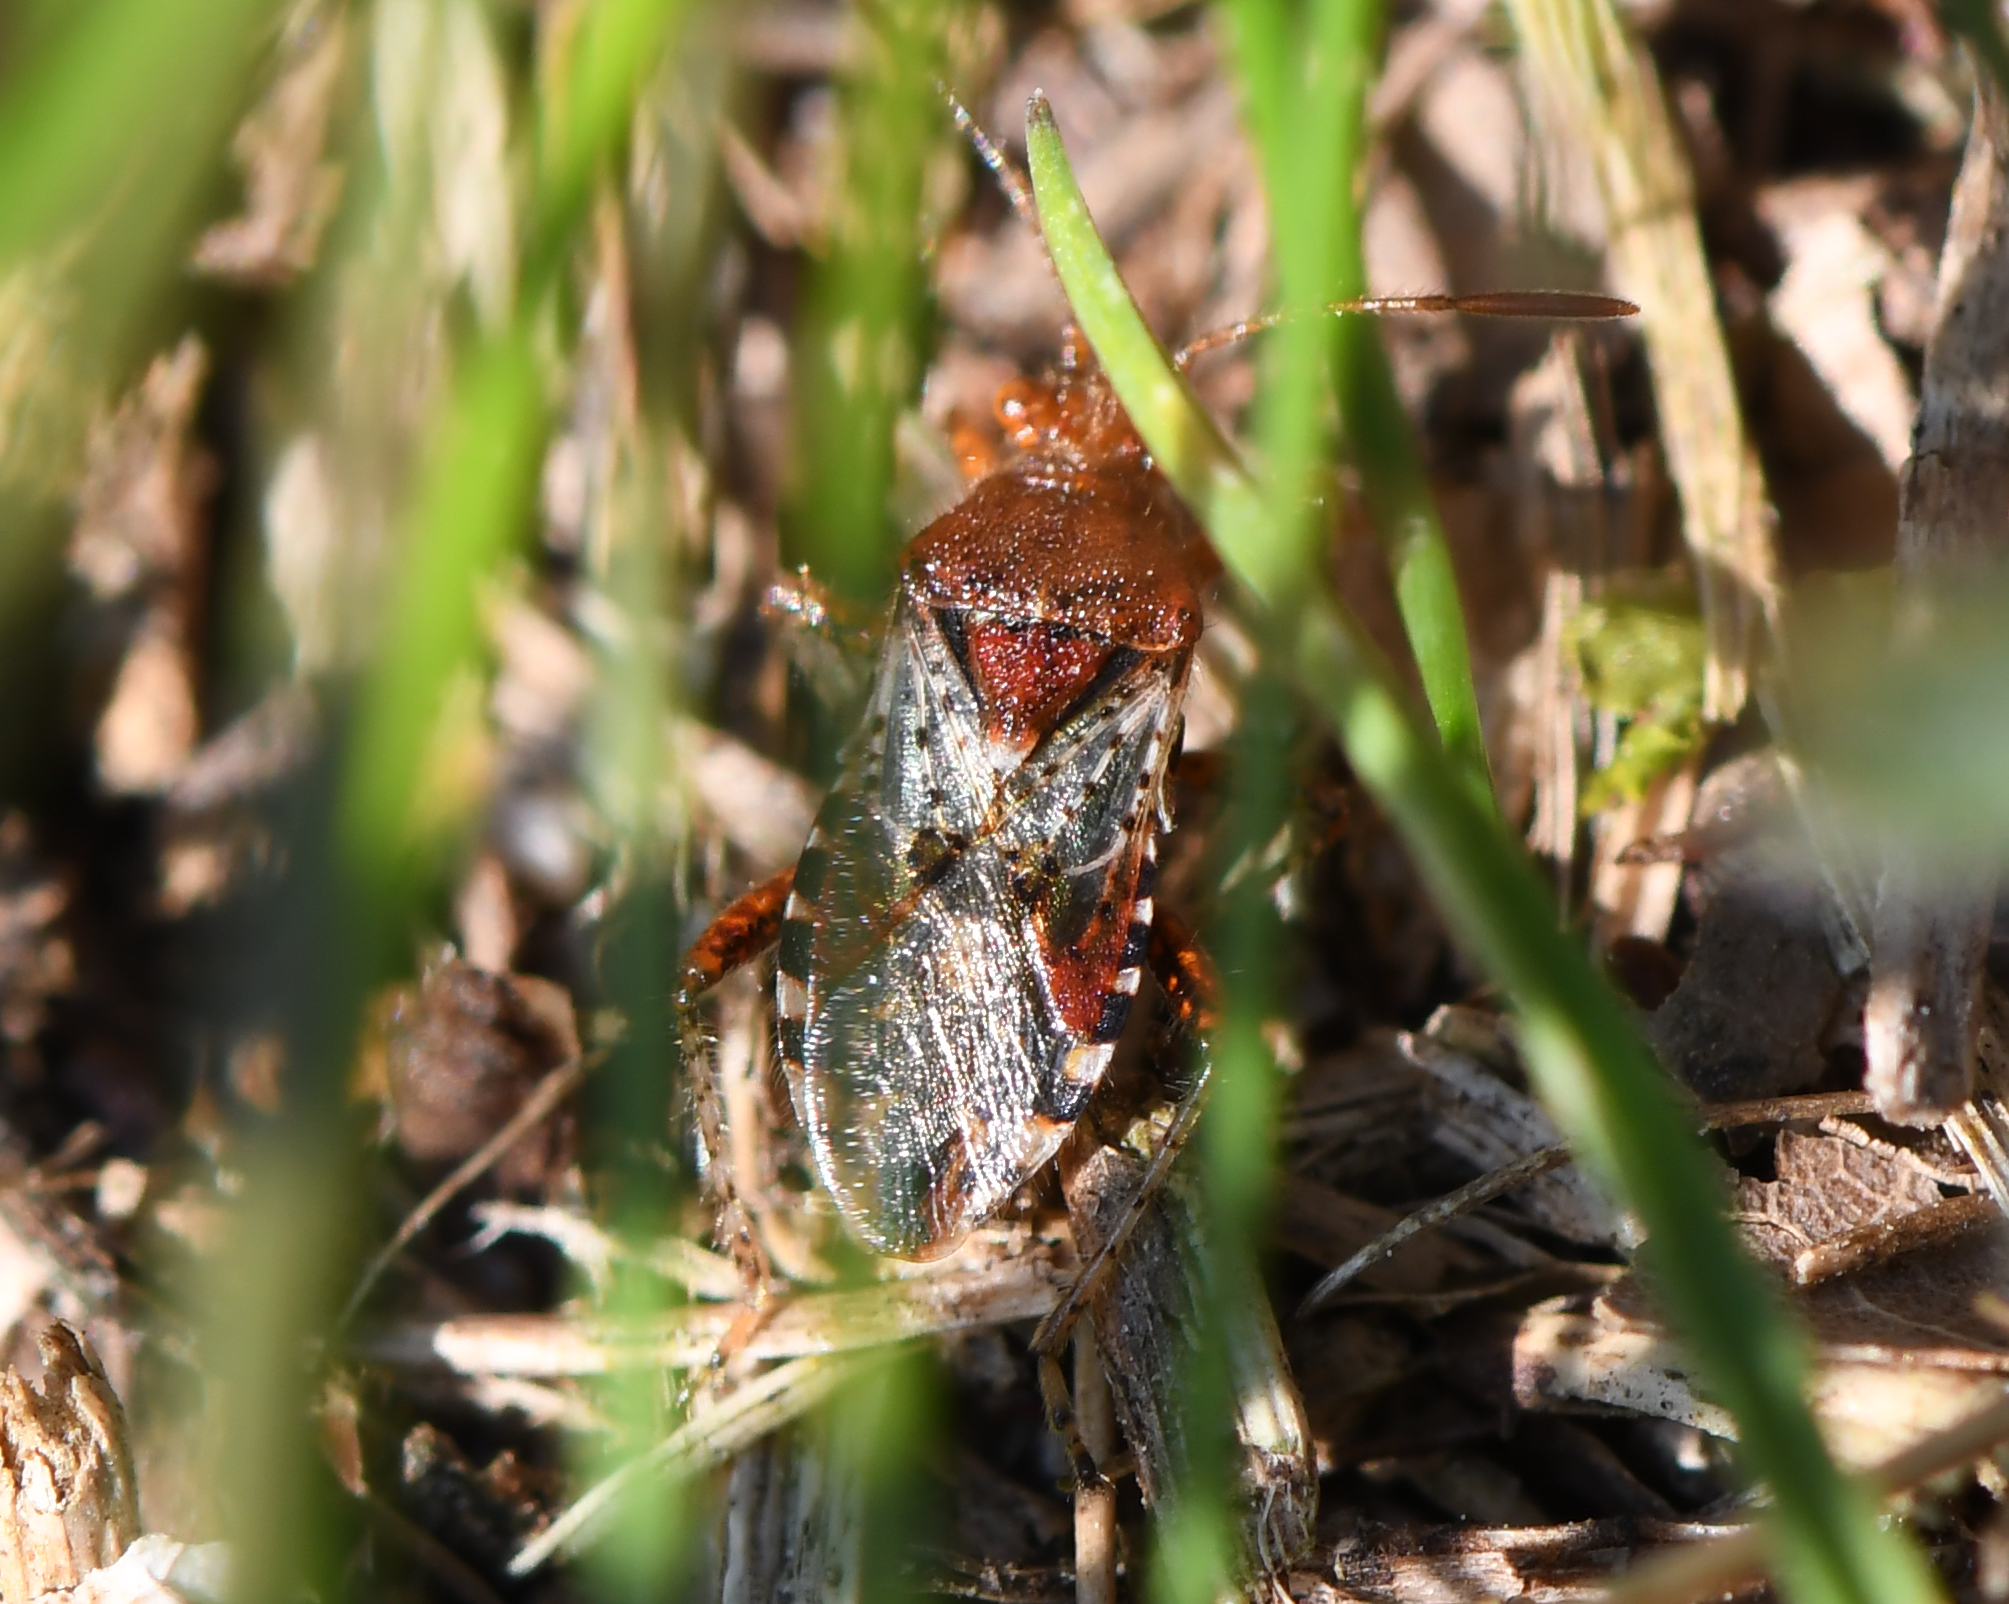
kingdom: Animalia
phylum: Arthropoda
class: Insecta
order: Hemiptera
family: Rhopalidae
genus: Rhopalus
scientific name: Rhopalus subrufus
